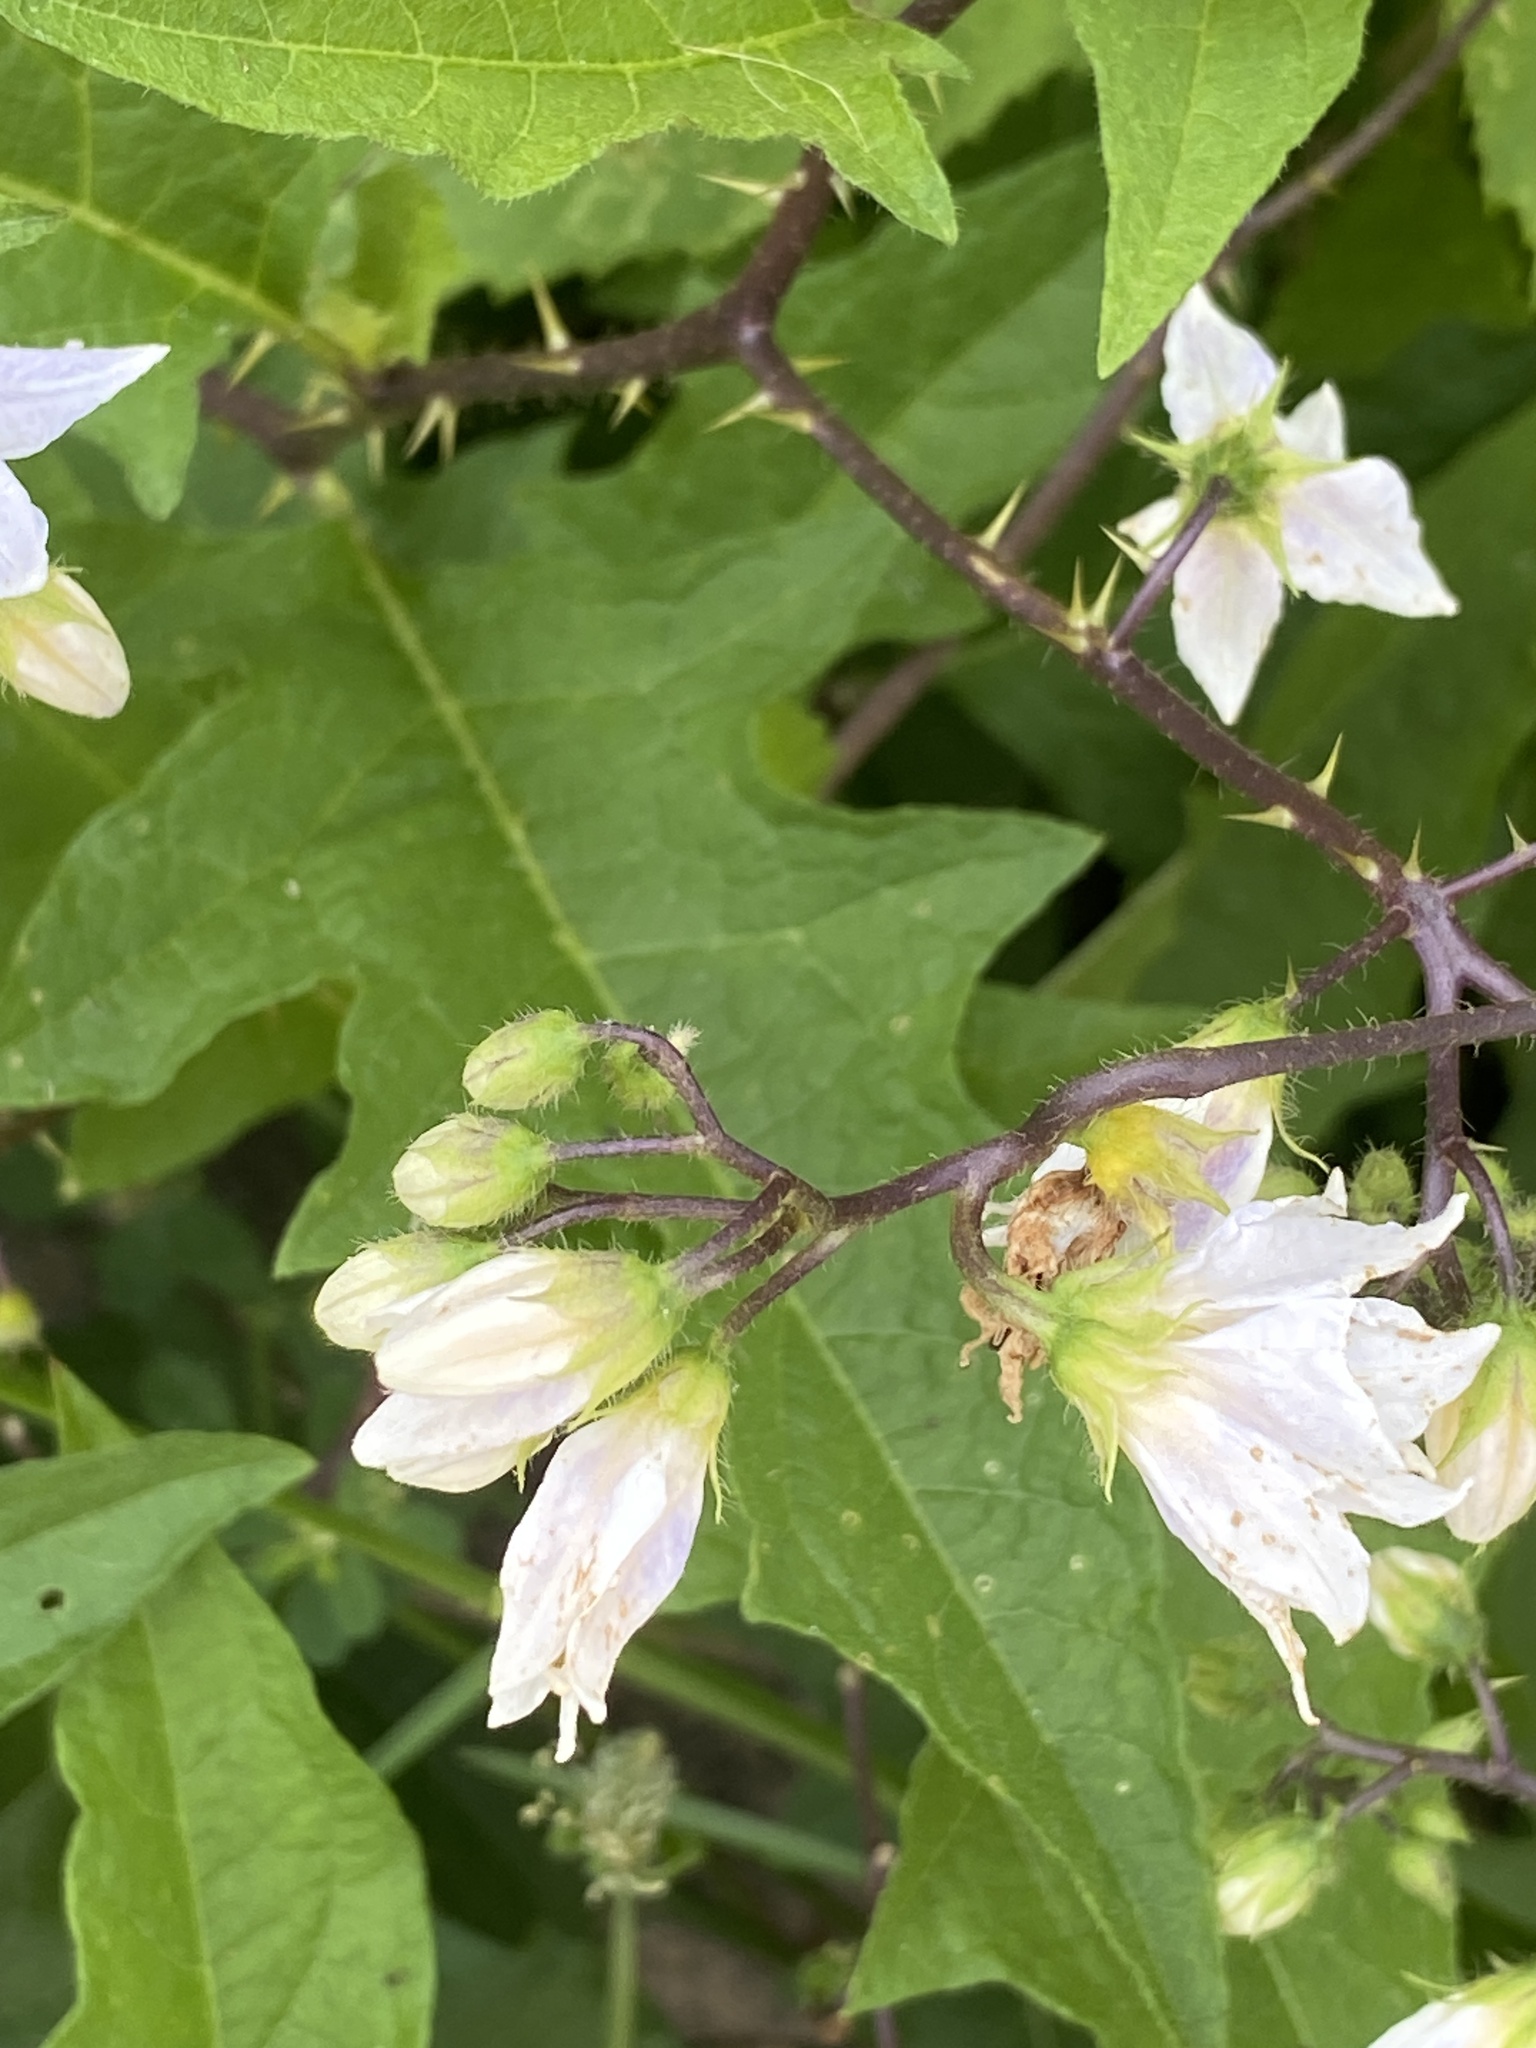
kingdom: Plantae
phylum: Tracheophyta
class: Magnoliopsida
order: Solanales
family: Solanaceae
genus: Solanum
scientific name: Solanum carolinense
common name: Horse-nettle
